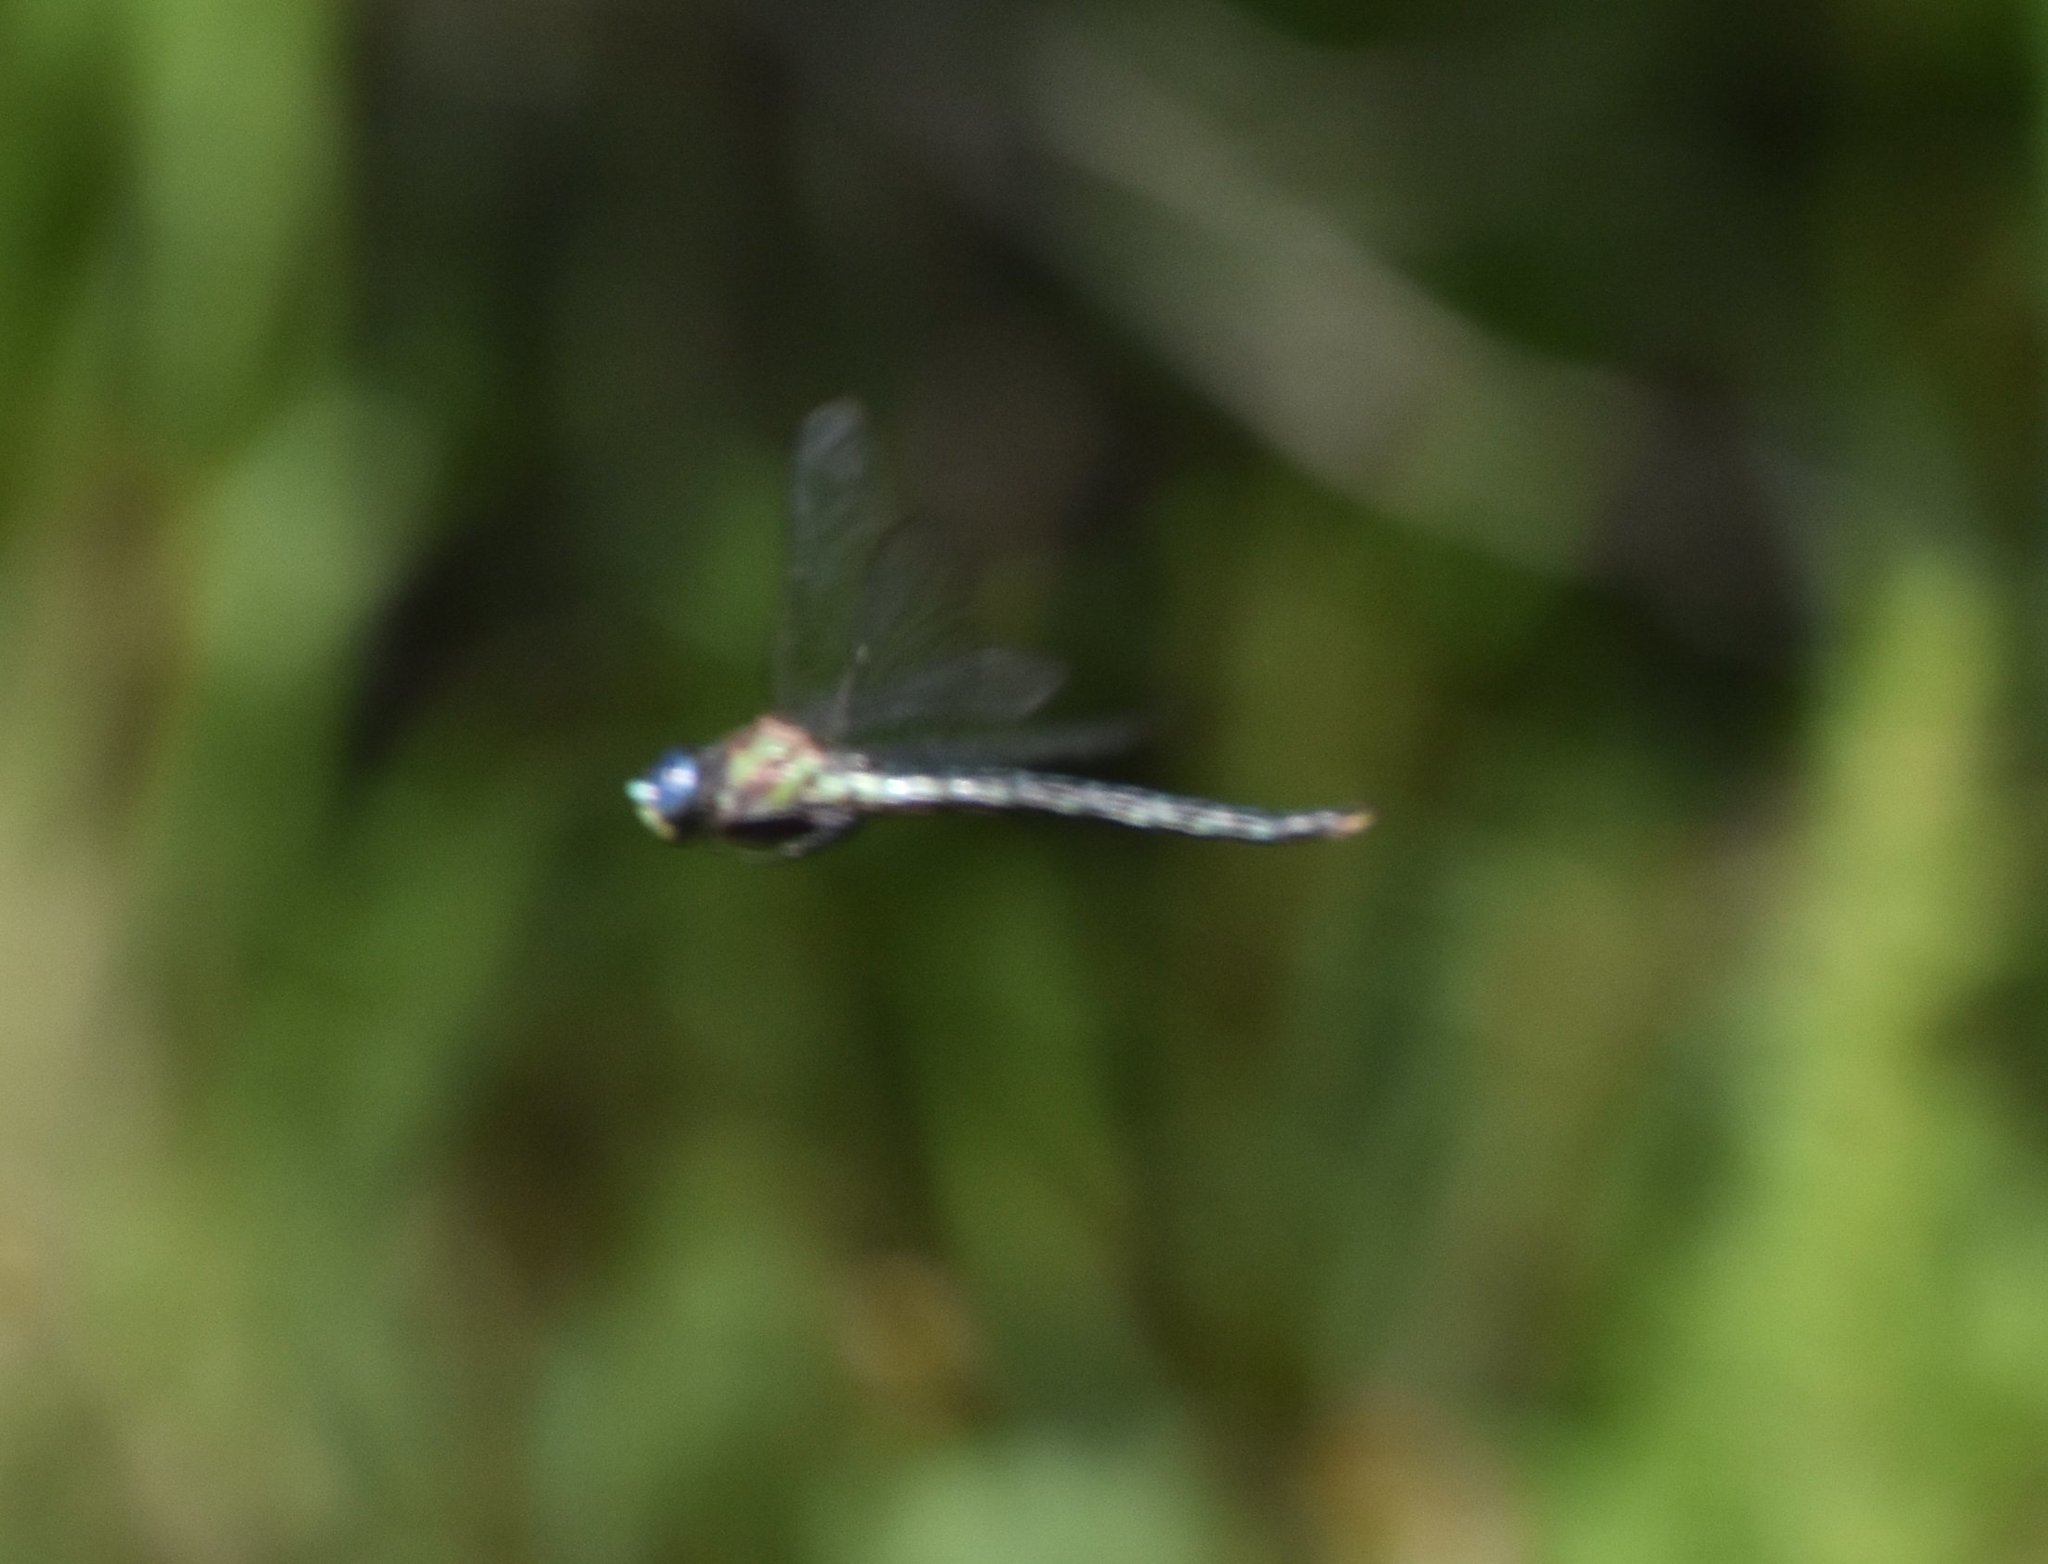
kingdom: Animalia
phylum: Arthropoda
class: Insecta
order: Odonata
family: Aeshnidae
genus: Nasiaeschna
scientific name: Nasiaeschna pentacantha
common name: Cyrano darner
